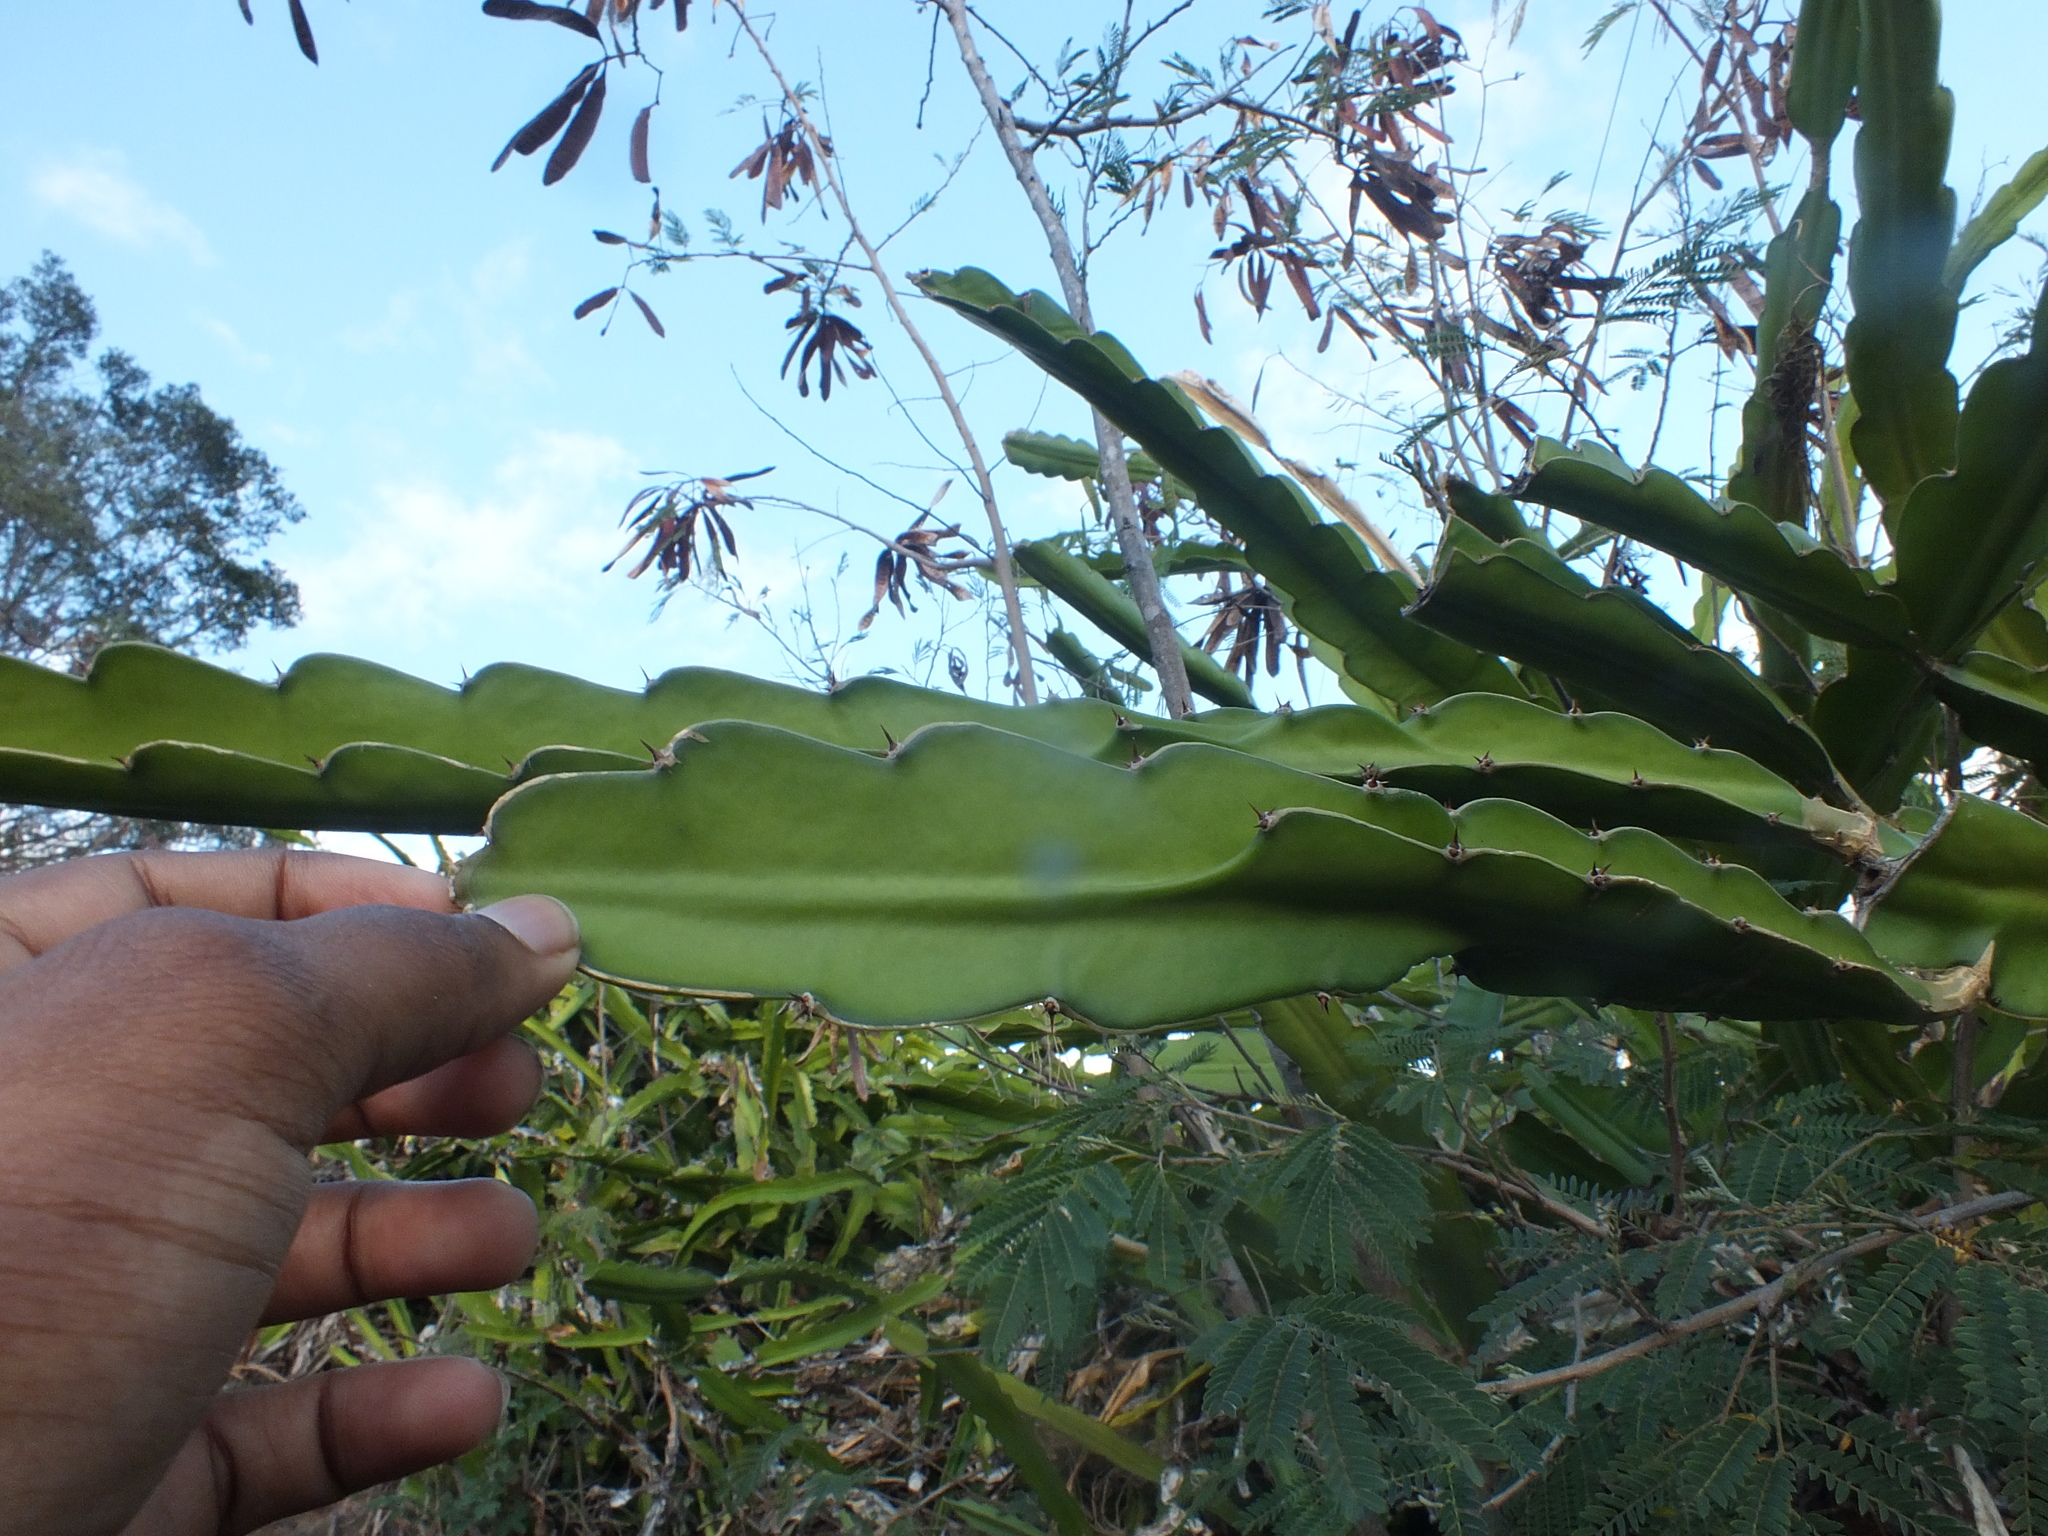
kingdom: Plantae
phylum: Tracheophyta
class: Magnoliopsida
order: Caryophyllales
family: Cactaceae
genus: Selenicereus
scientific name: Selenicereus undatus
